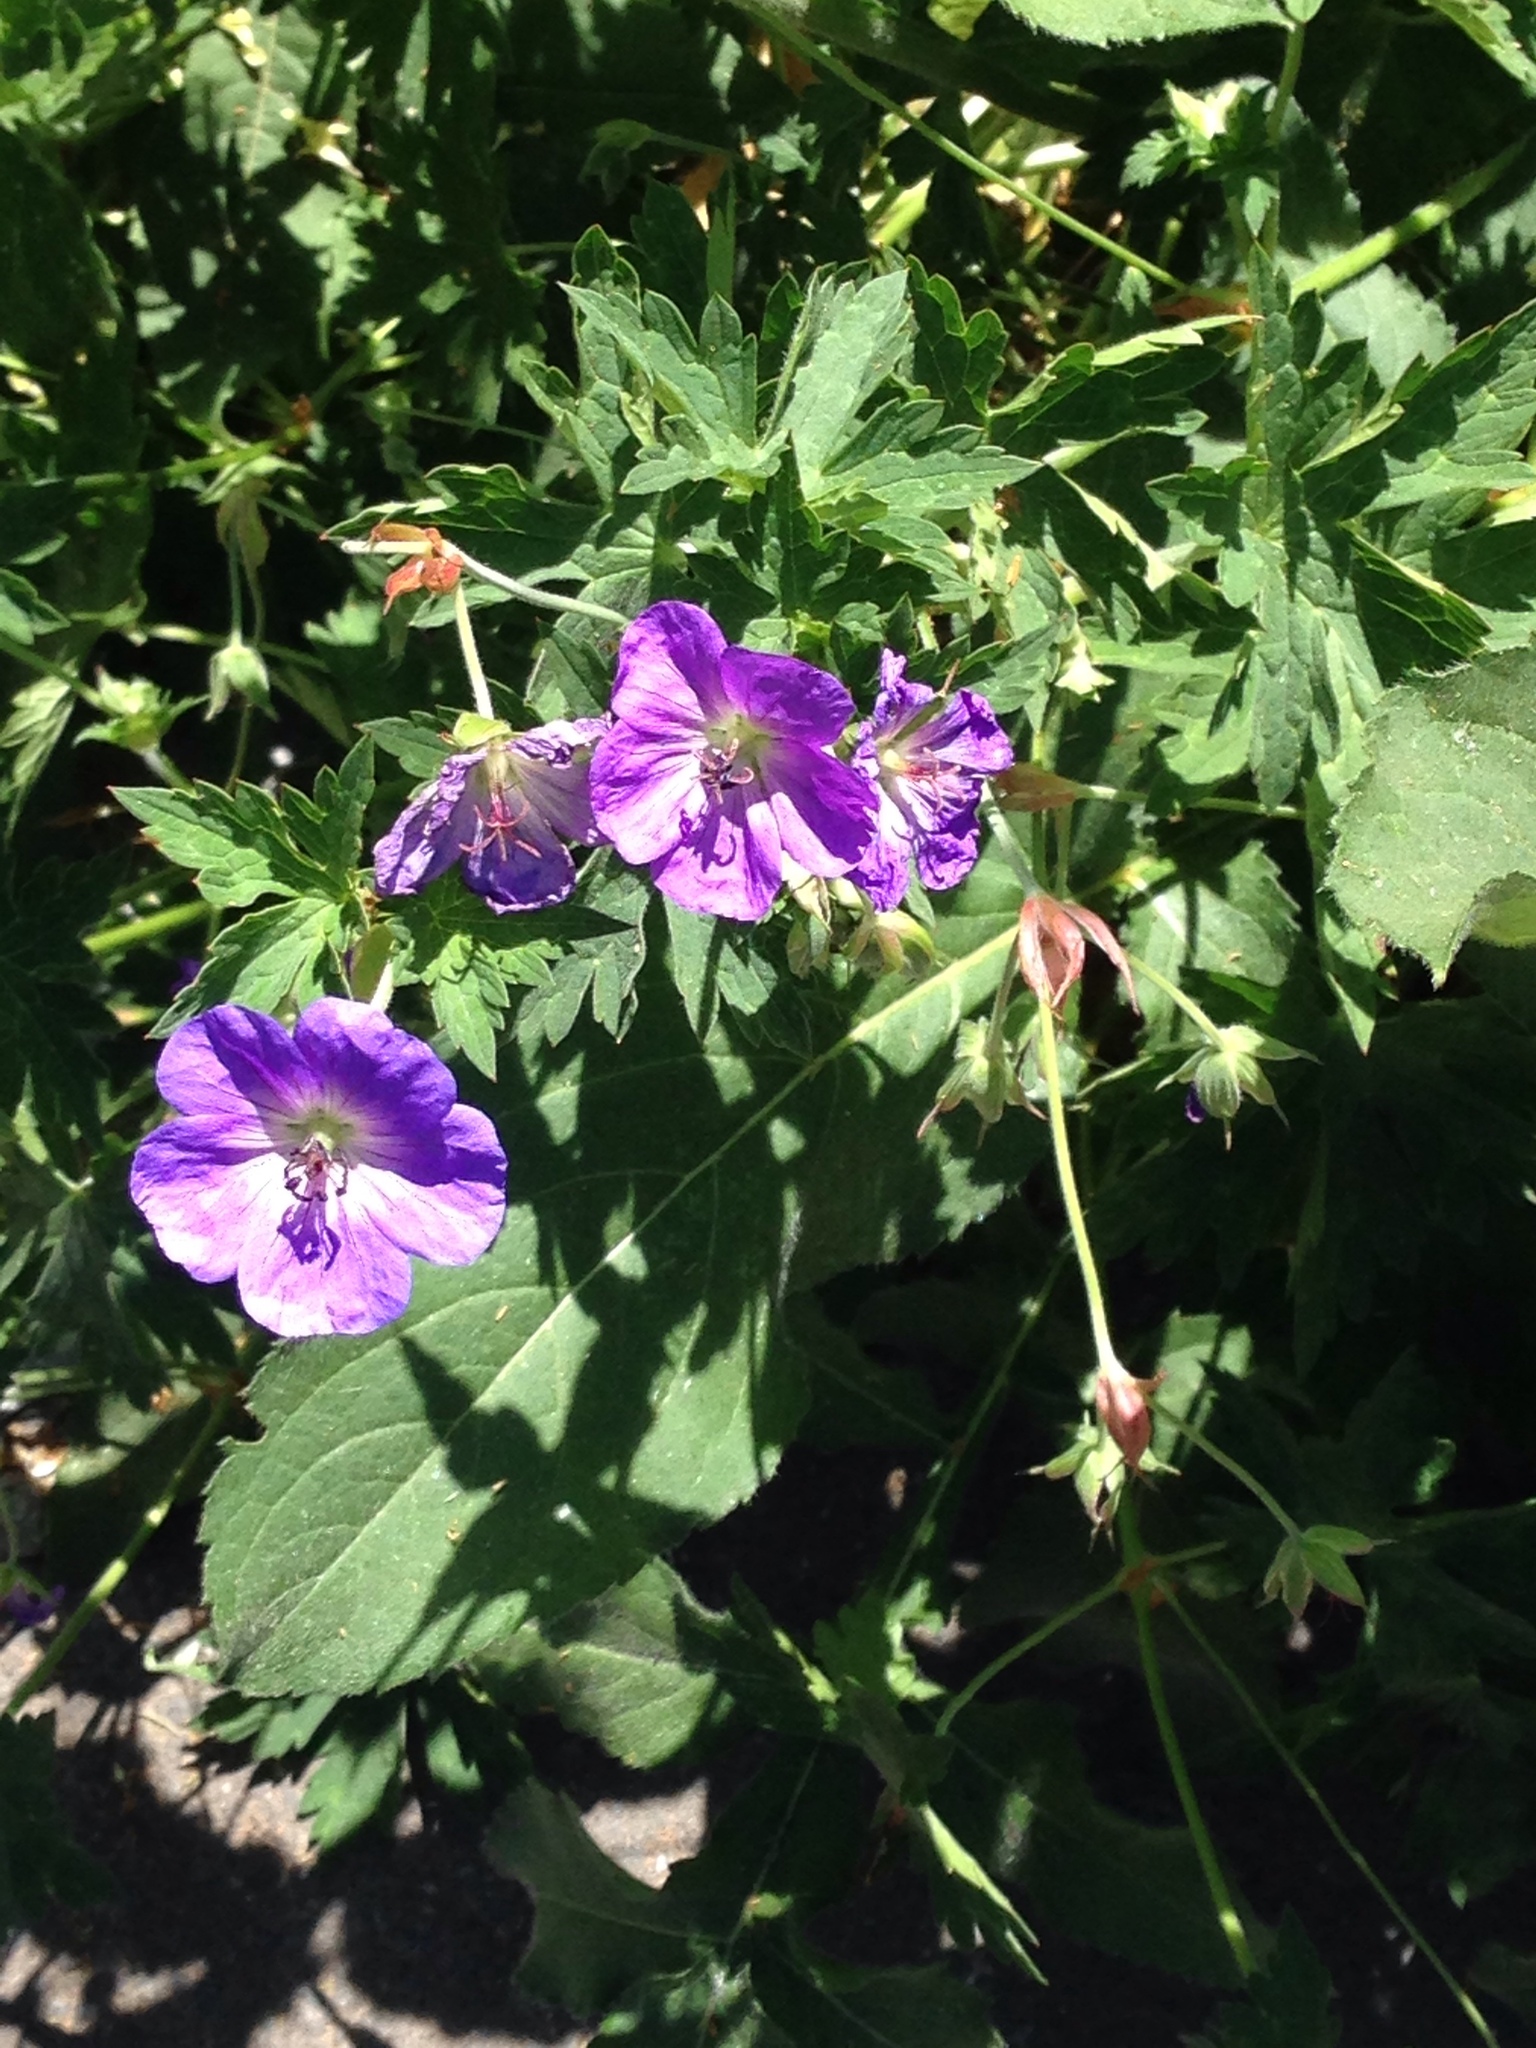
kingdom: Plantae
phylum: Tracheophyta
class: Magnoliopsida
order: Geraniales
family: Geraniaceae
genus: Geranium
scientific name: Geranium pratense
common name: Meadow crane's-bill
